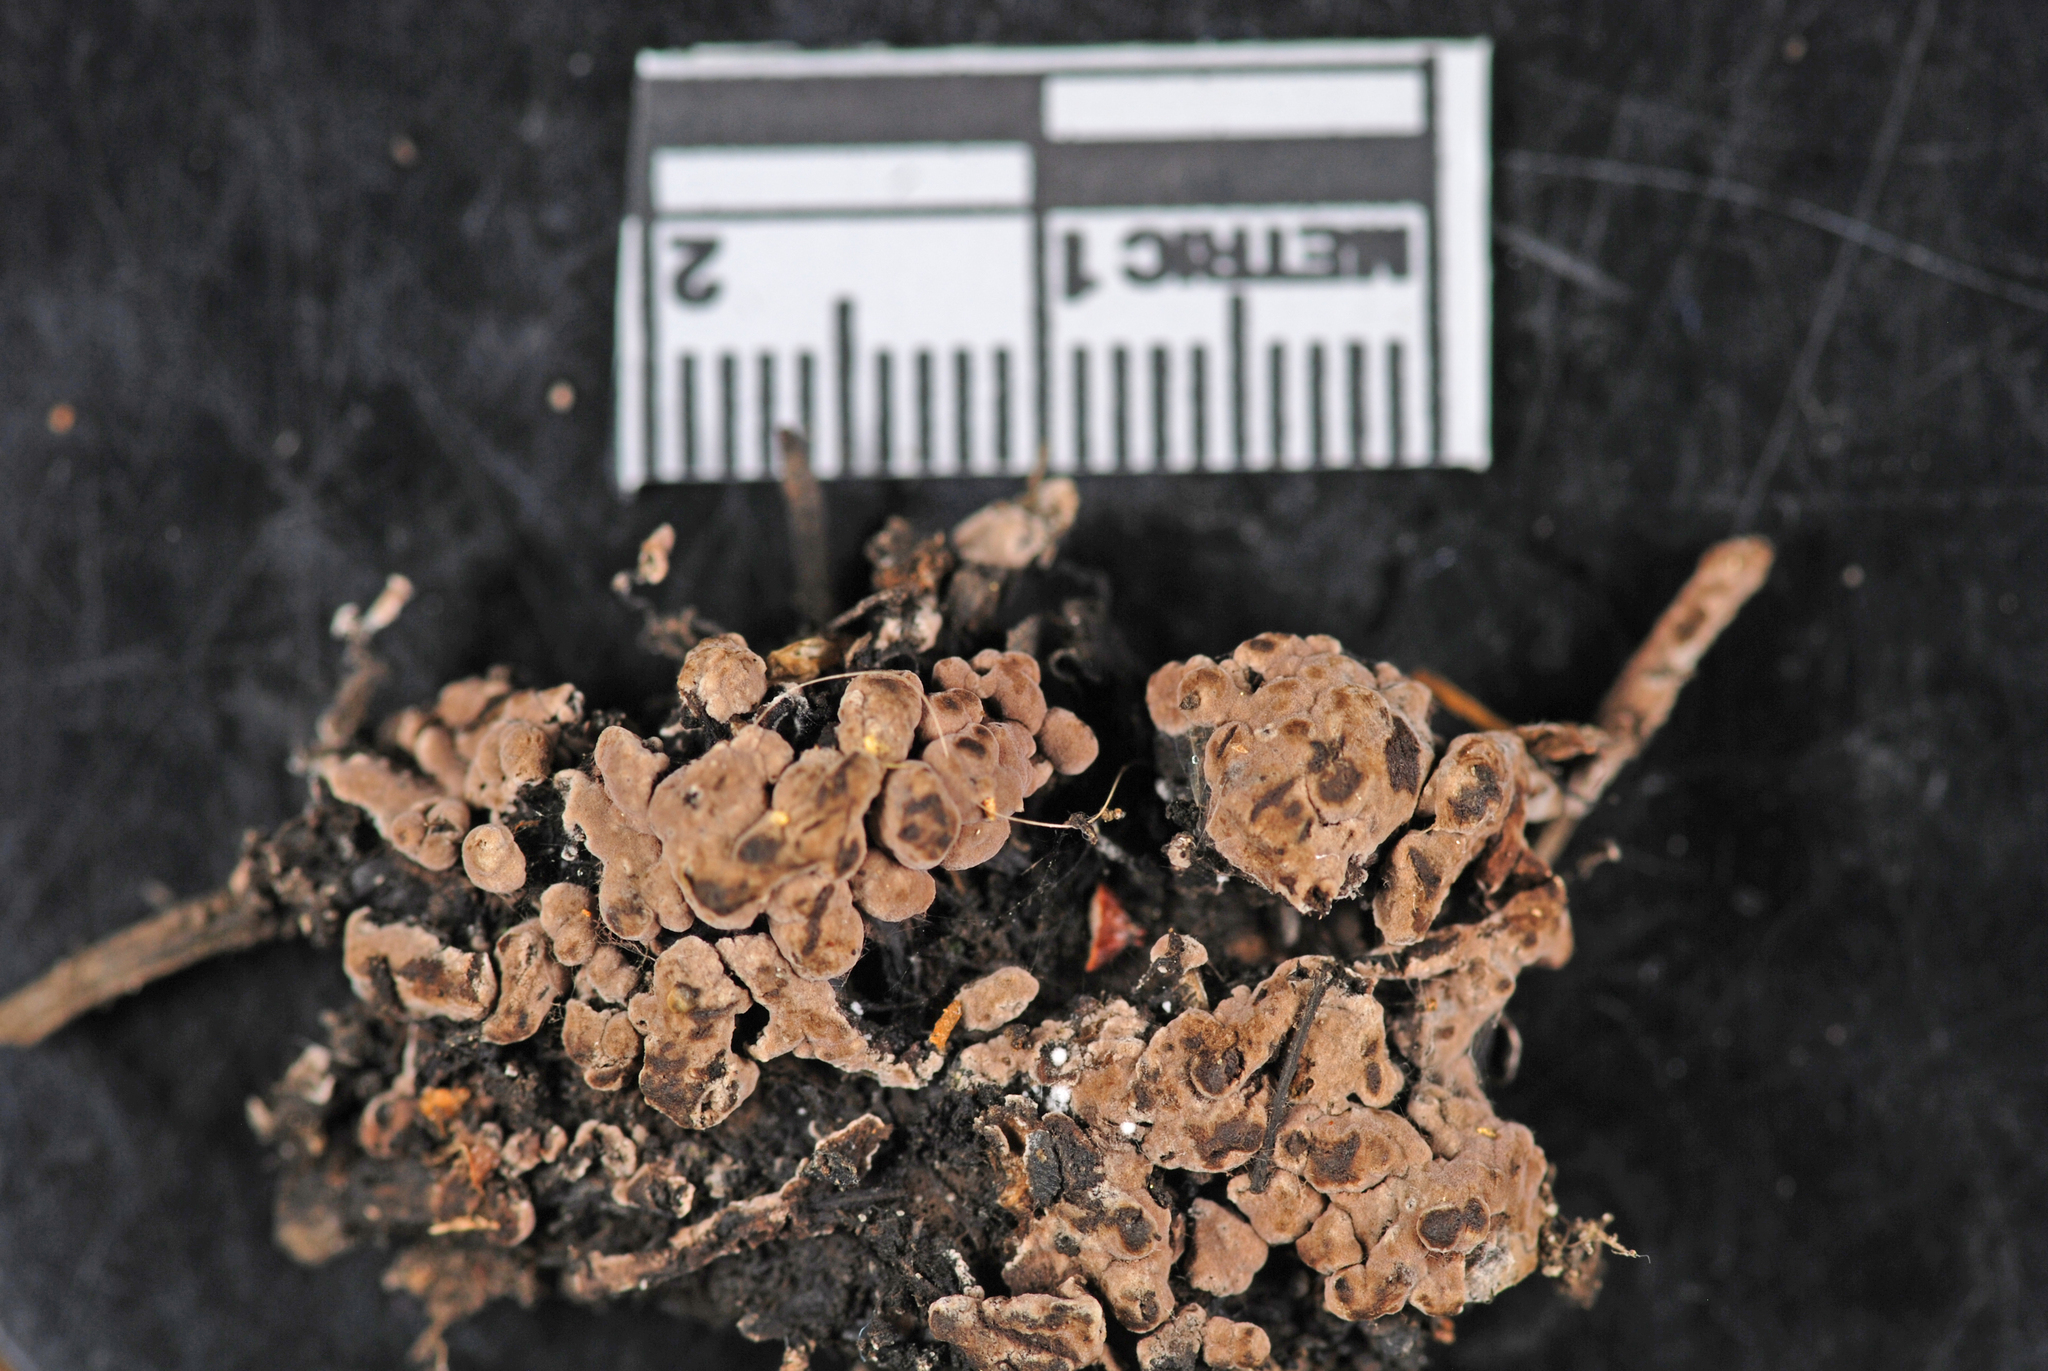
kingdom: Fungi
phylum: Basidiomycota
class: Agaricomycetes
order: Thelephorales
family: Thelephoraceae
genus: Tomentella
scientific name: Tomentella testaceogilva
